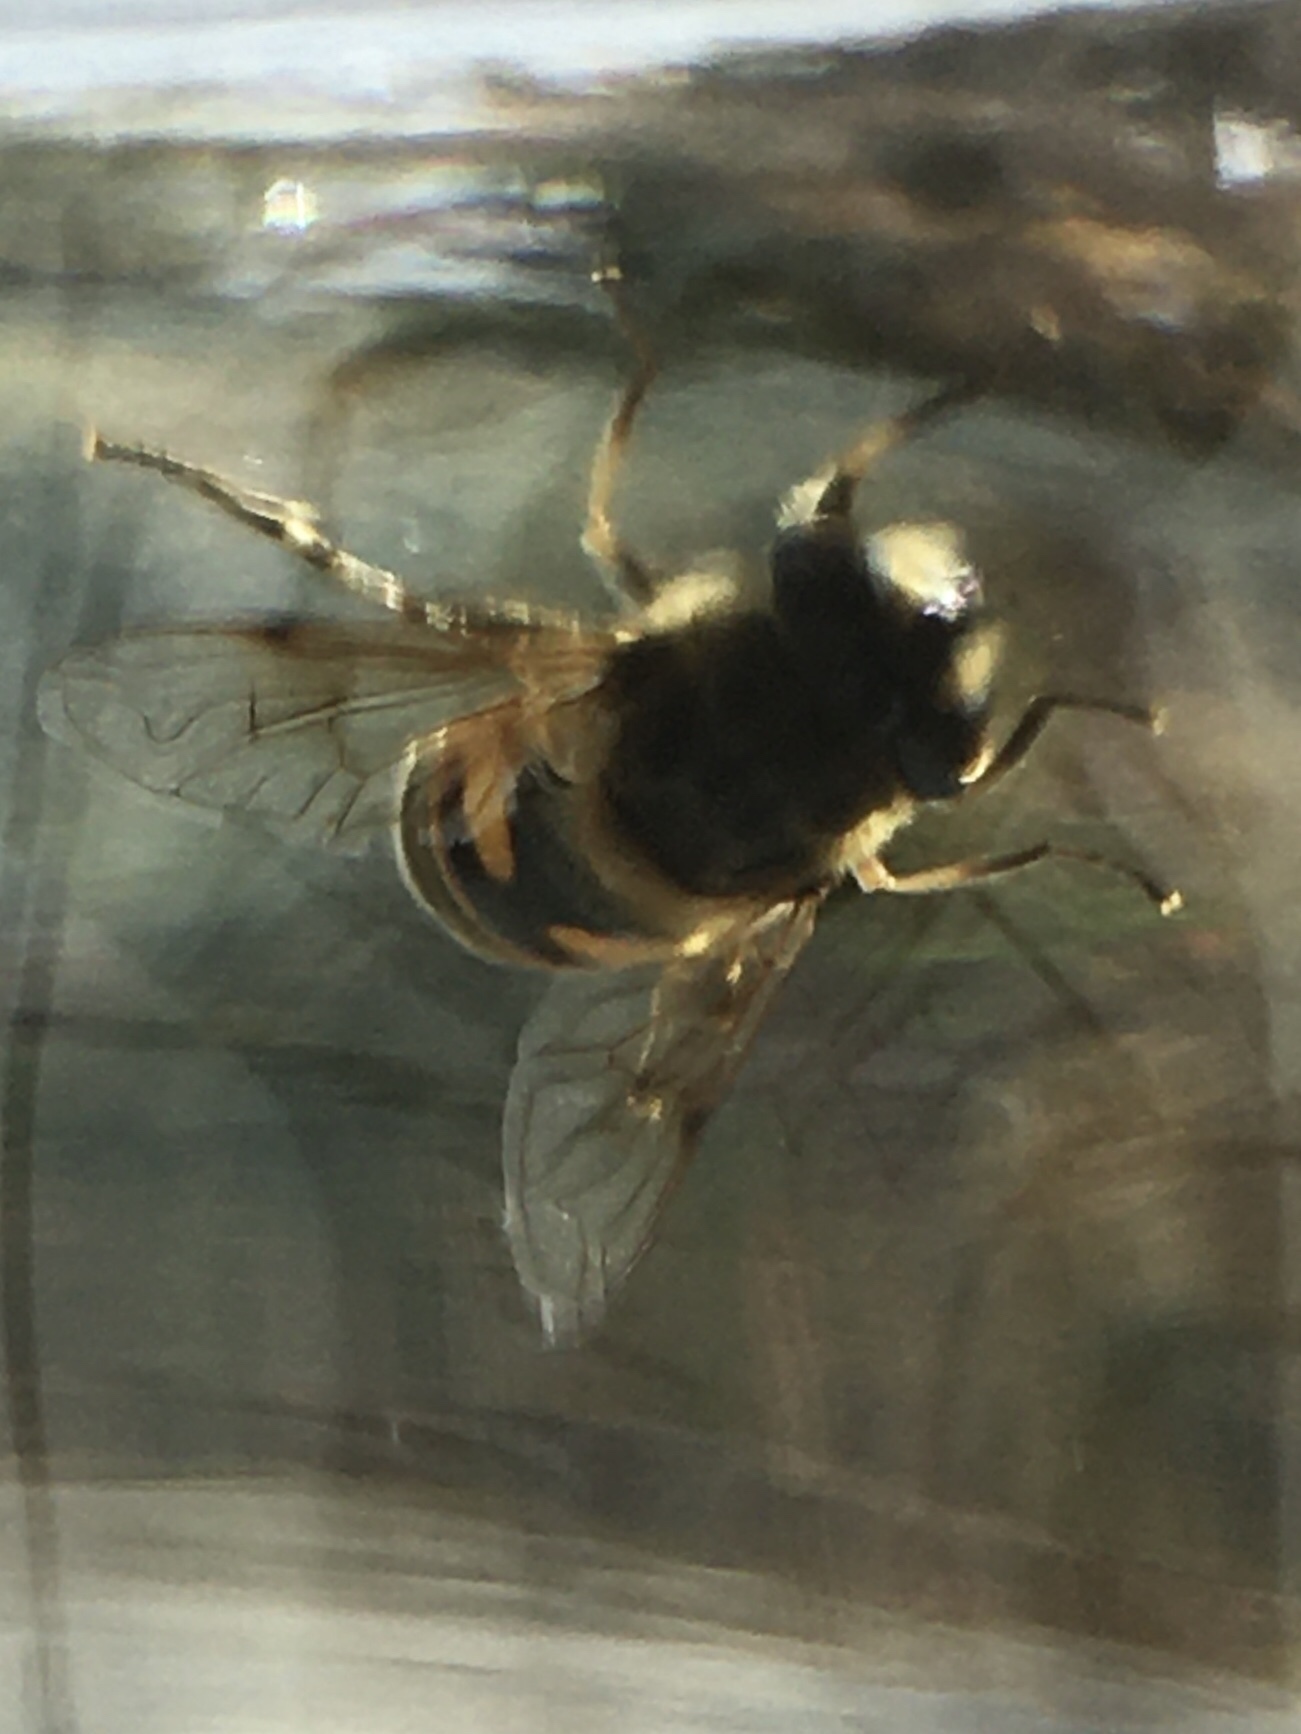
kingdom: Animalia
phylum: Arthropoda
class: Insecta
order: Diptera
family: Syrphidae
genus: Eristalis
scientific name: Eristalis tenax
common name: Drone fly
